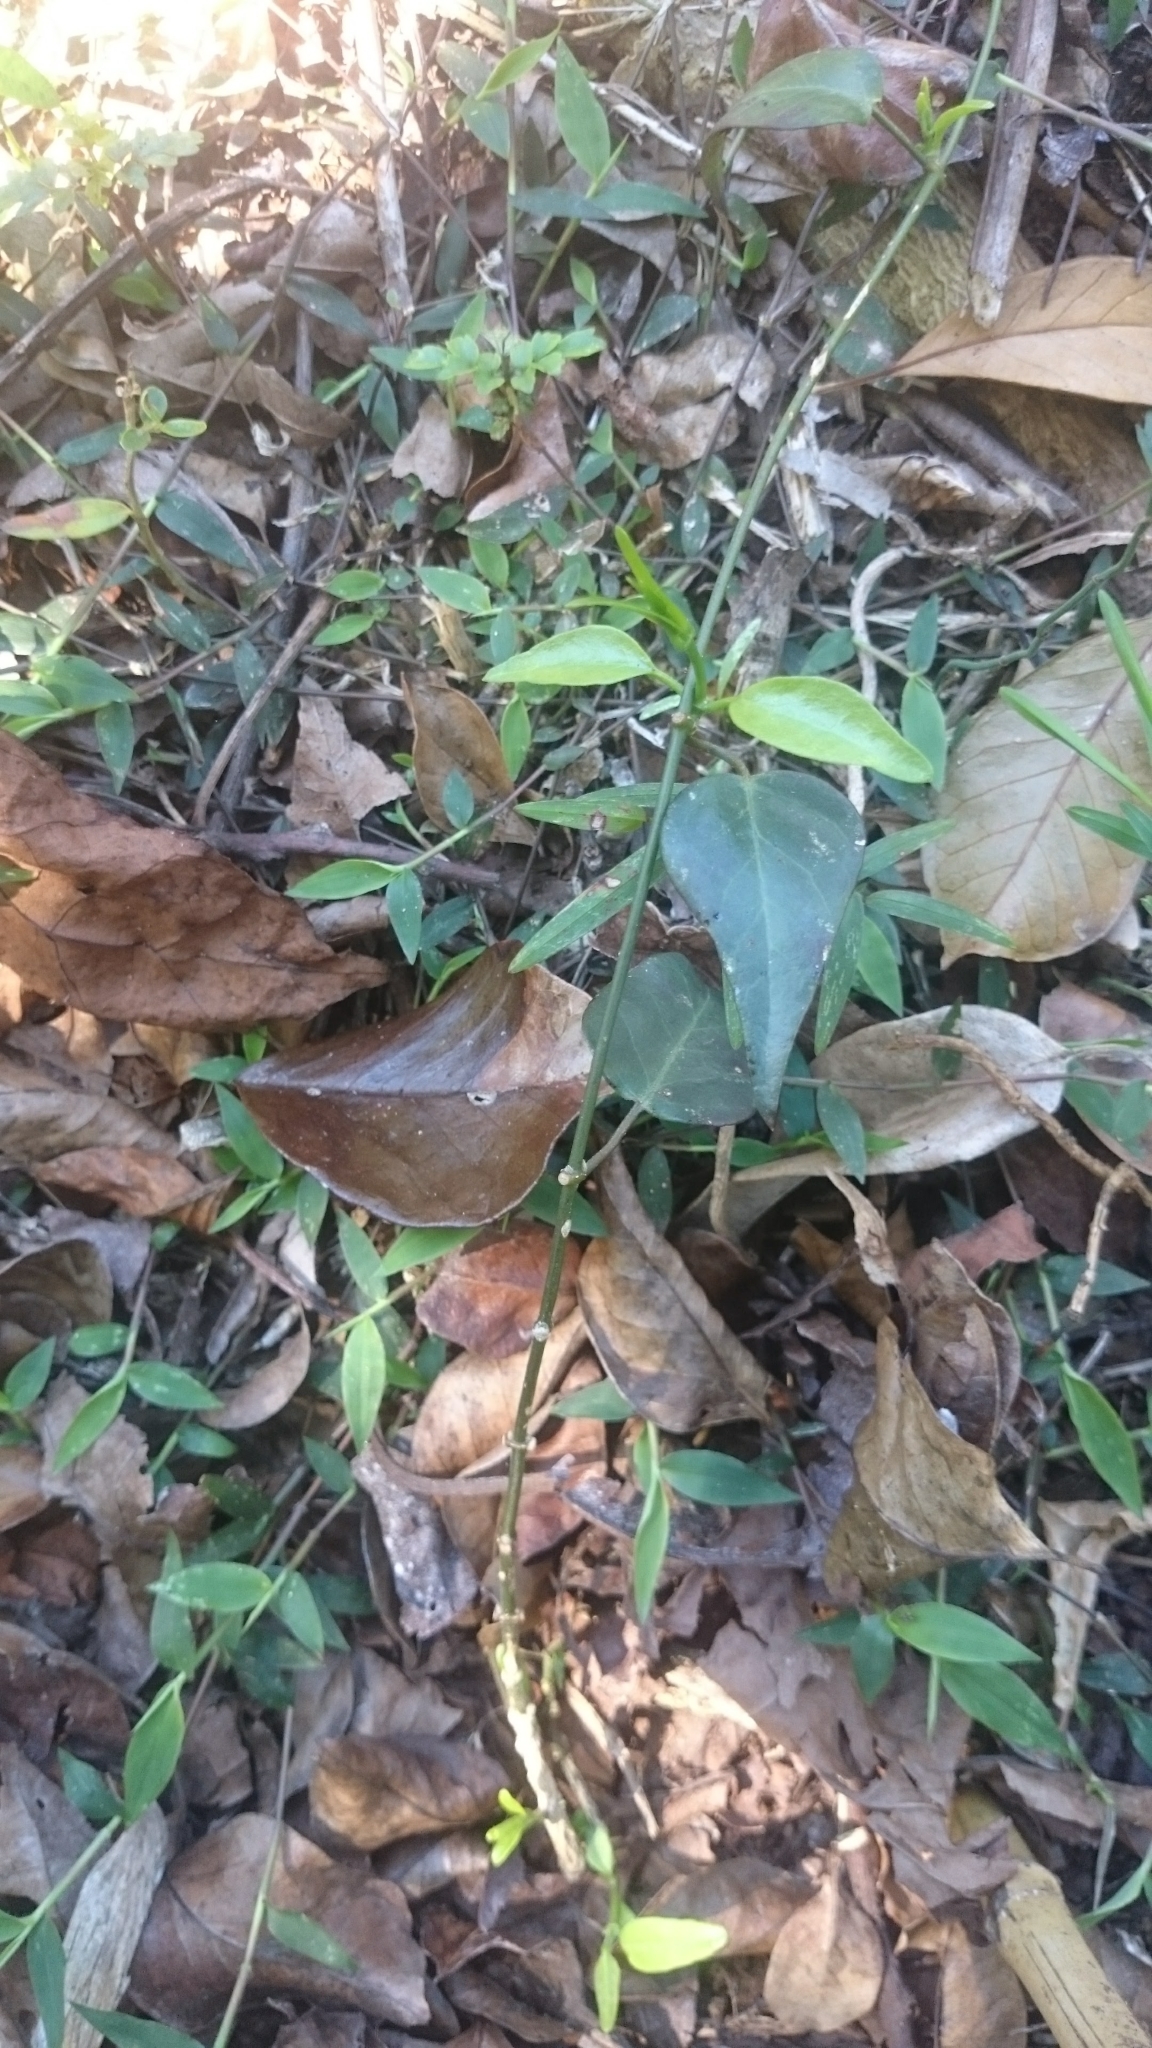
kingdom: Plantae
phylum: Tracheophyta
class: Magnoliopsida
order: Gentianales
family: Apocynaceae
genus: Vincetoxicum
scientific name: Vincetoxicum elegans
